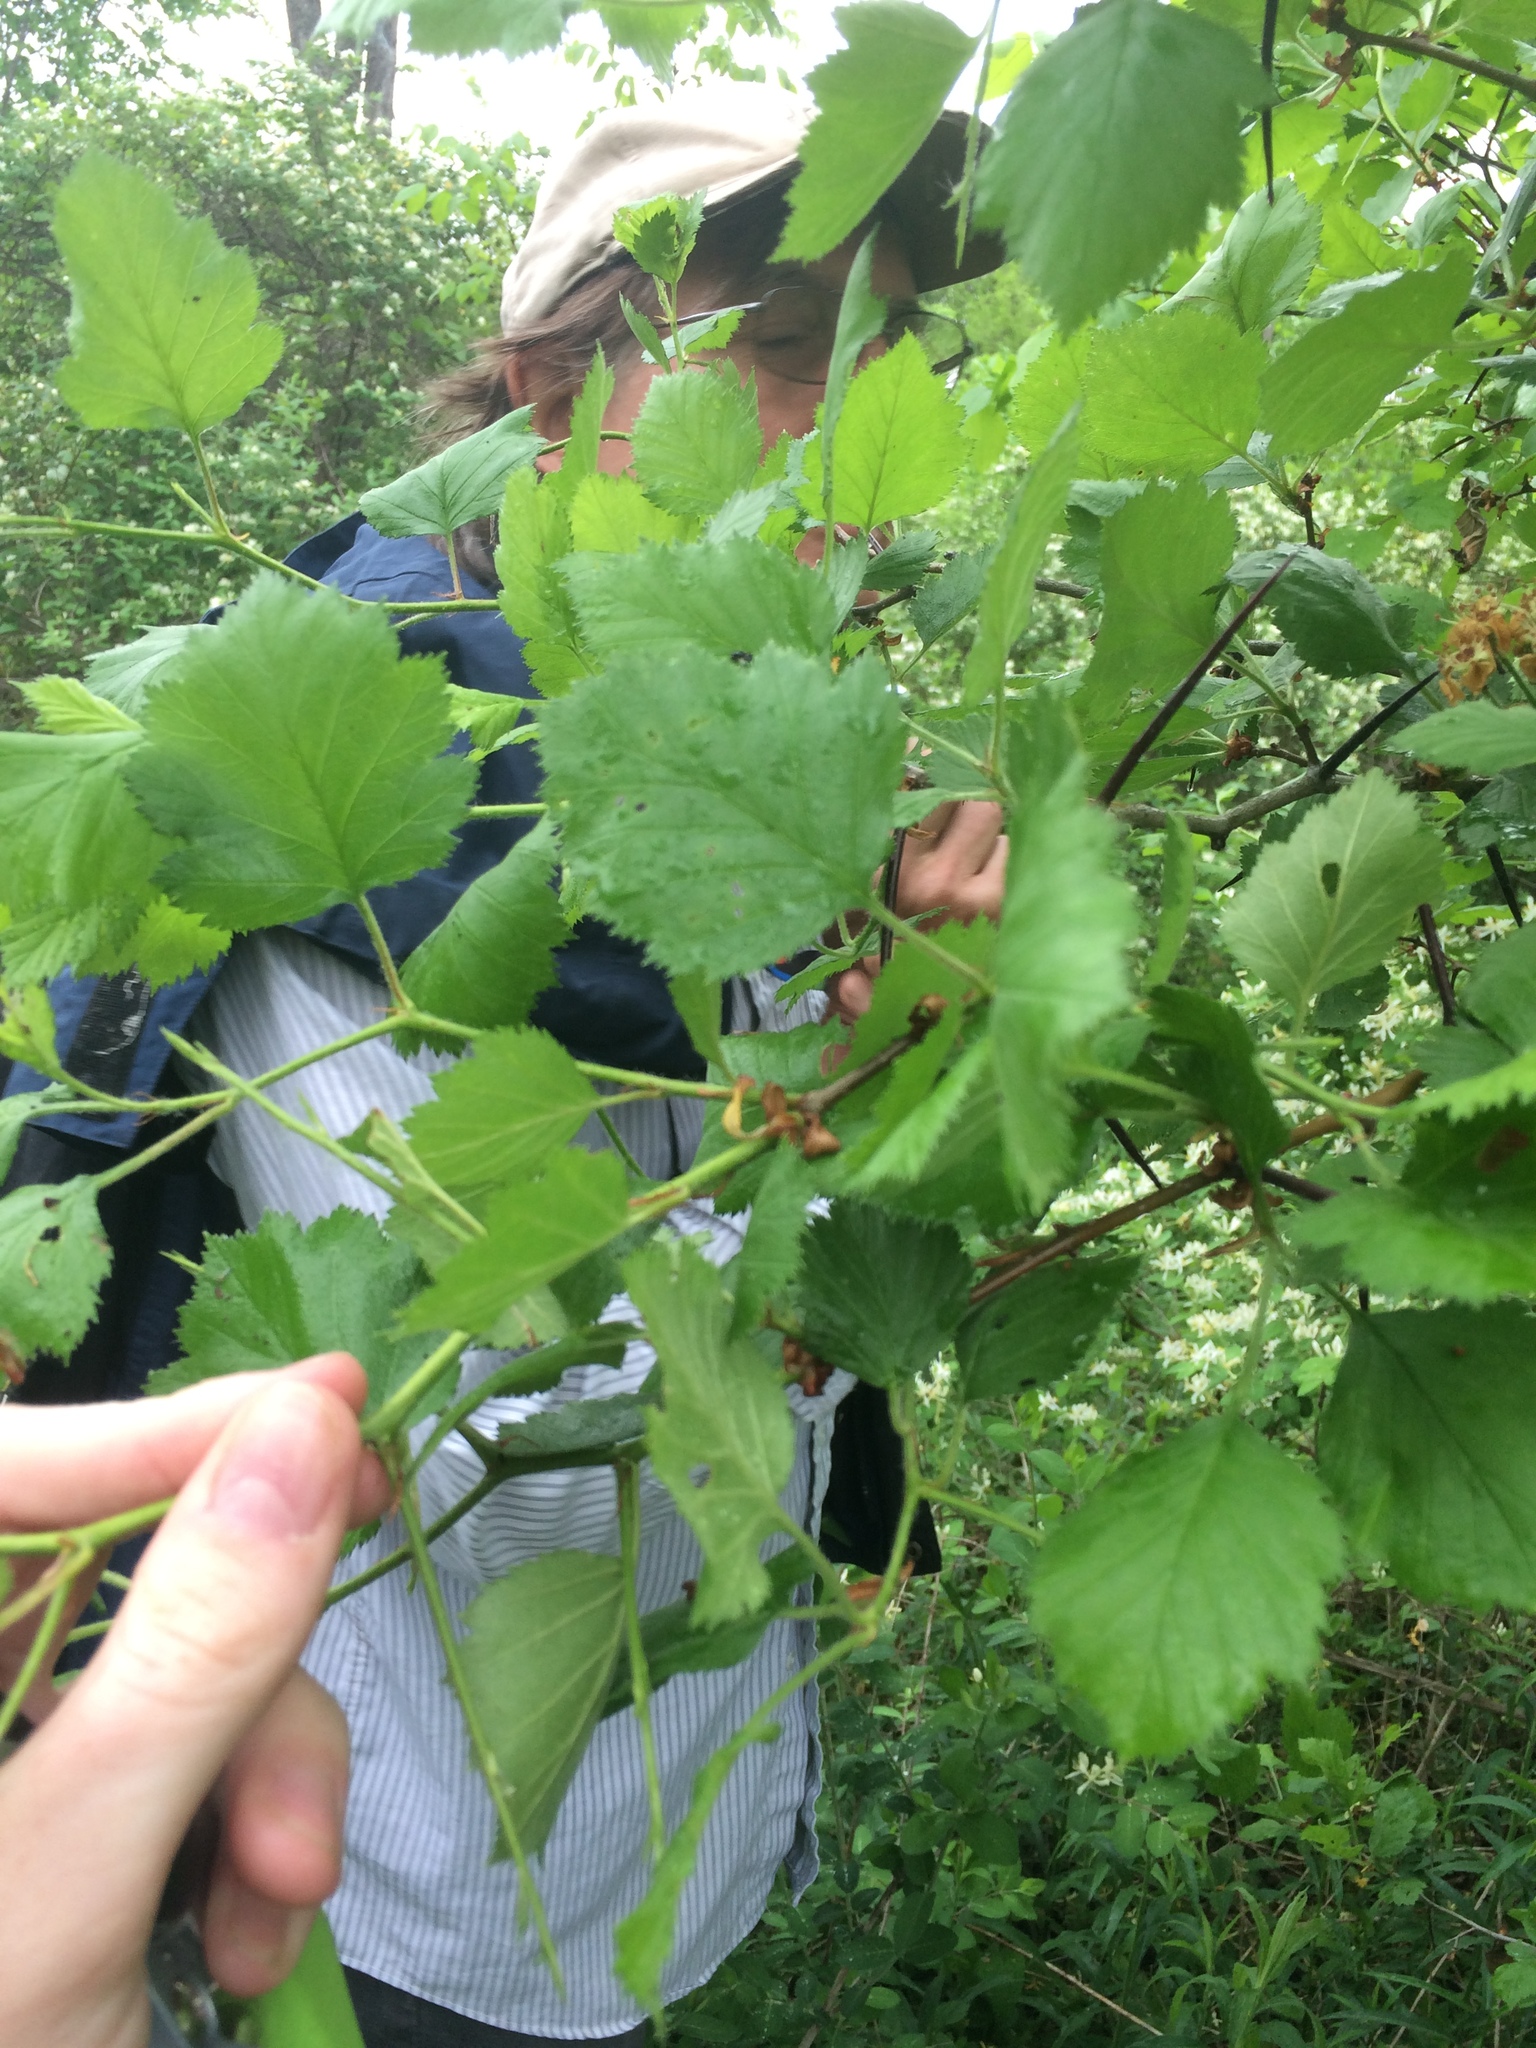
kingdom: Plantae
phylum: Tracheophyta
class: Magnoliopsida
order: Rosales
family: Rosaceae
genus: Crataegus
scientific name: Crataegus submollis
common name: Hairy cockspurthorn
